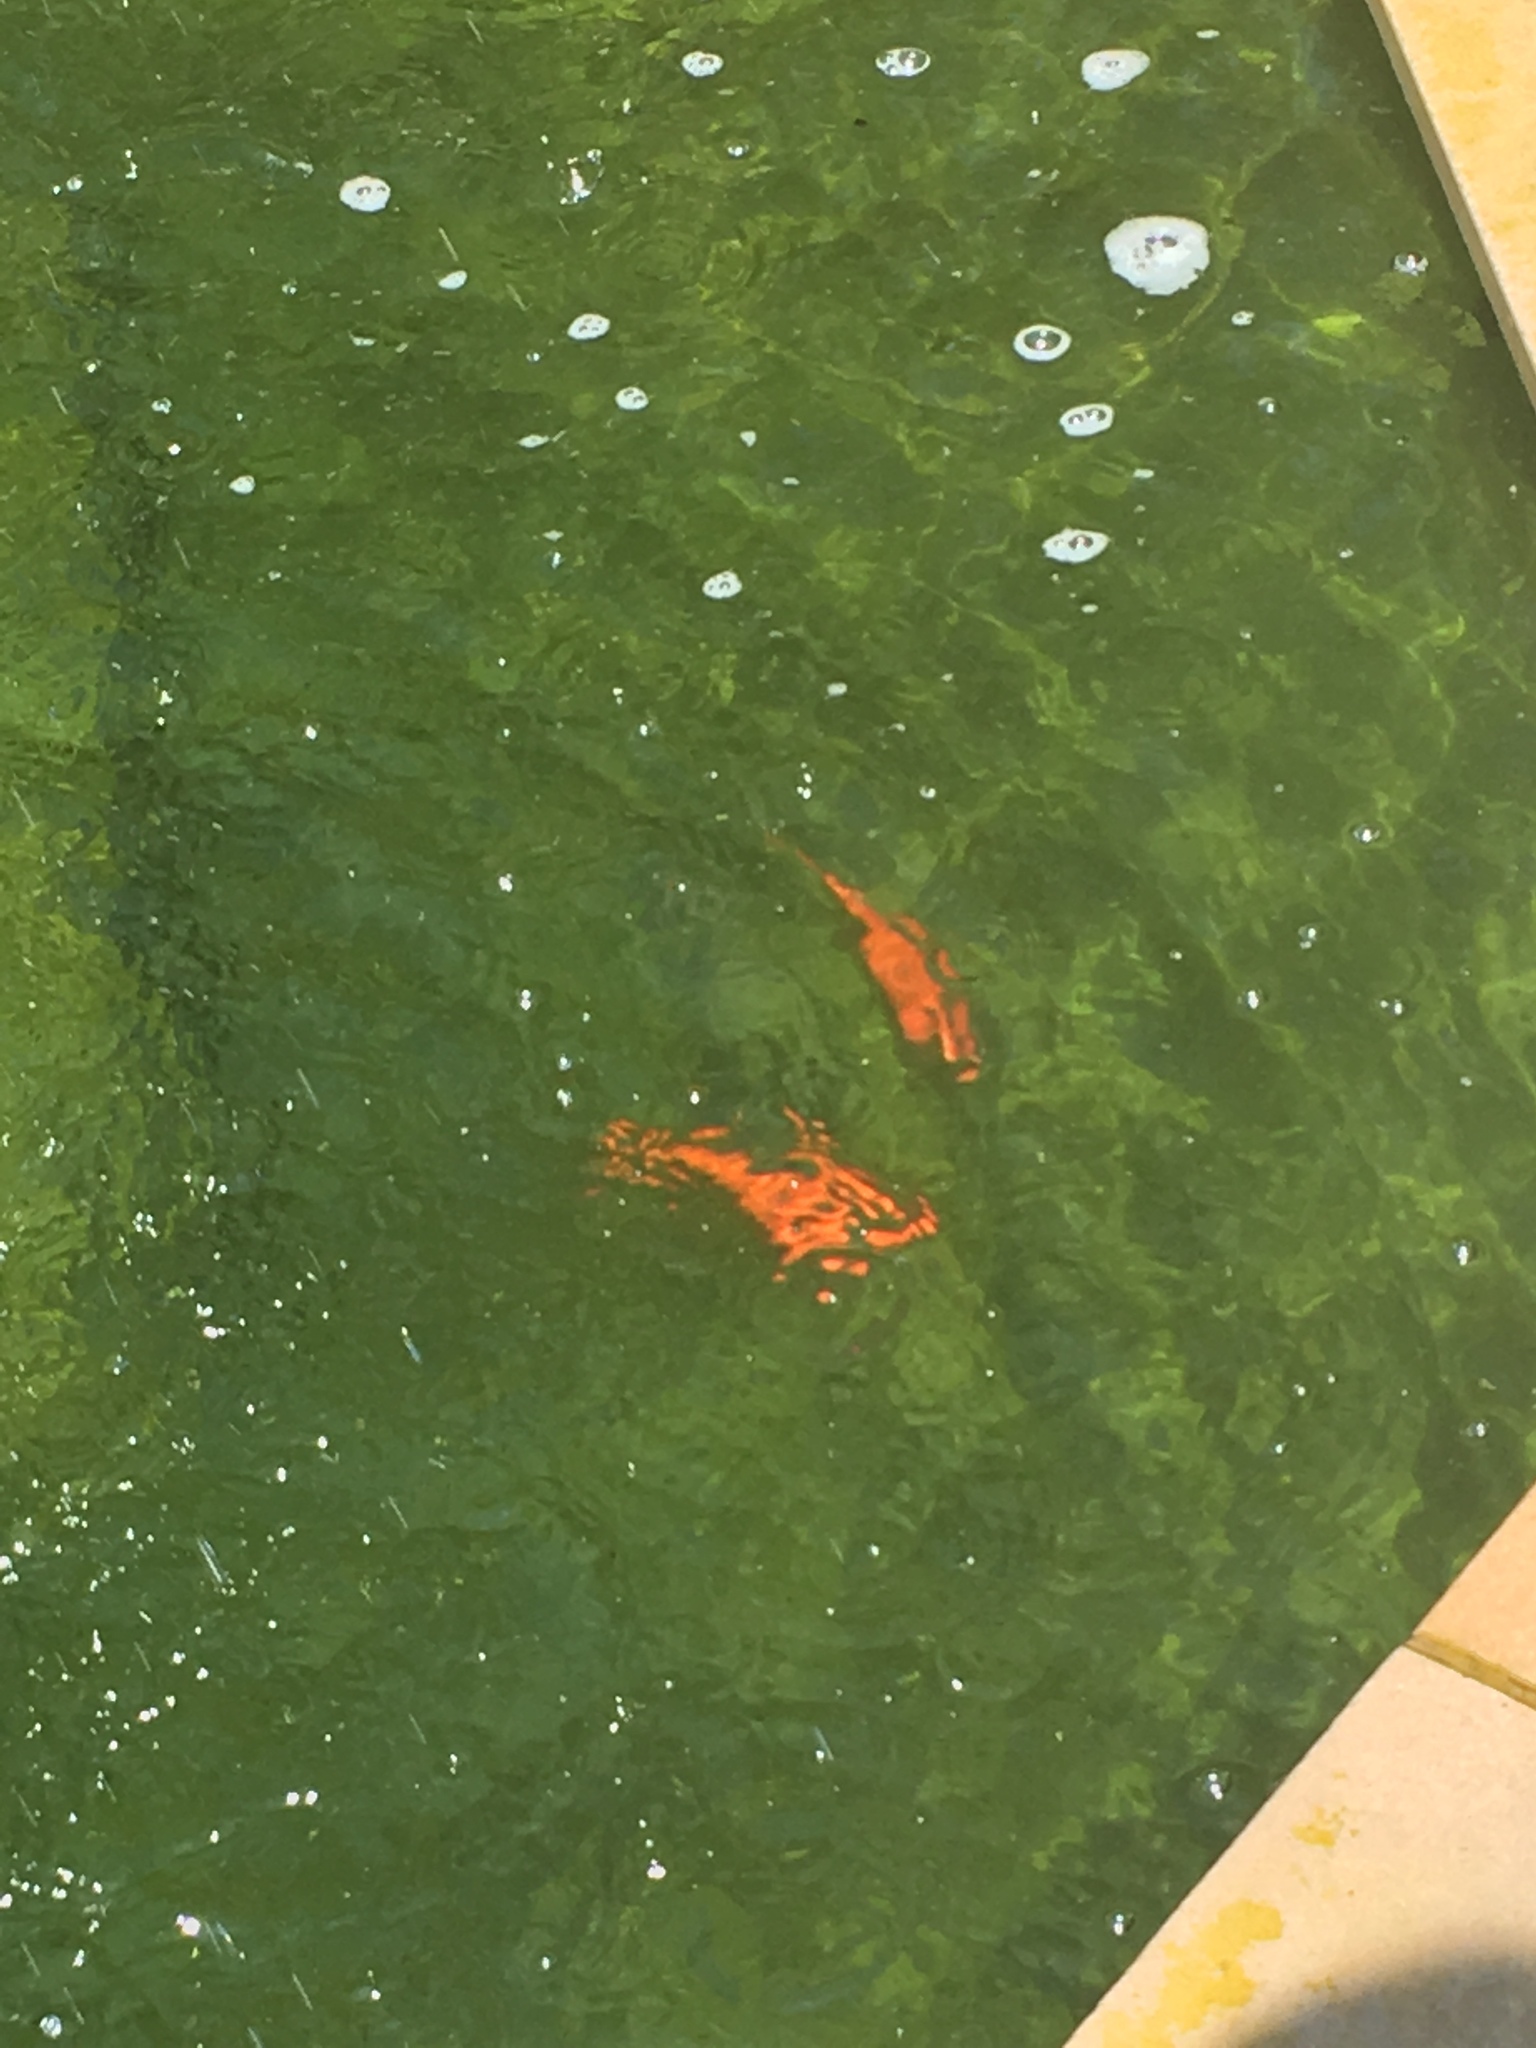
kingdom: Animalia
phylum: Chordata
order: Cypriniformes
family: Cyprinidae
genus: Carassius
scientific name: Carassius auratus
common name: Goldfish
